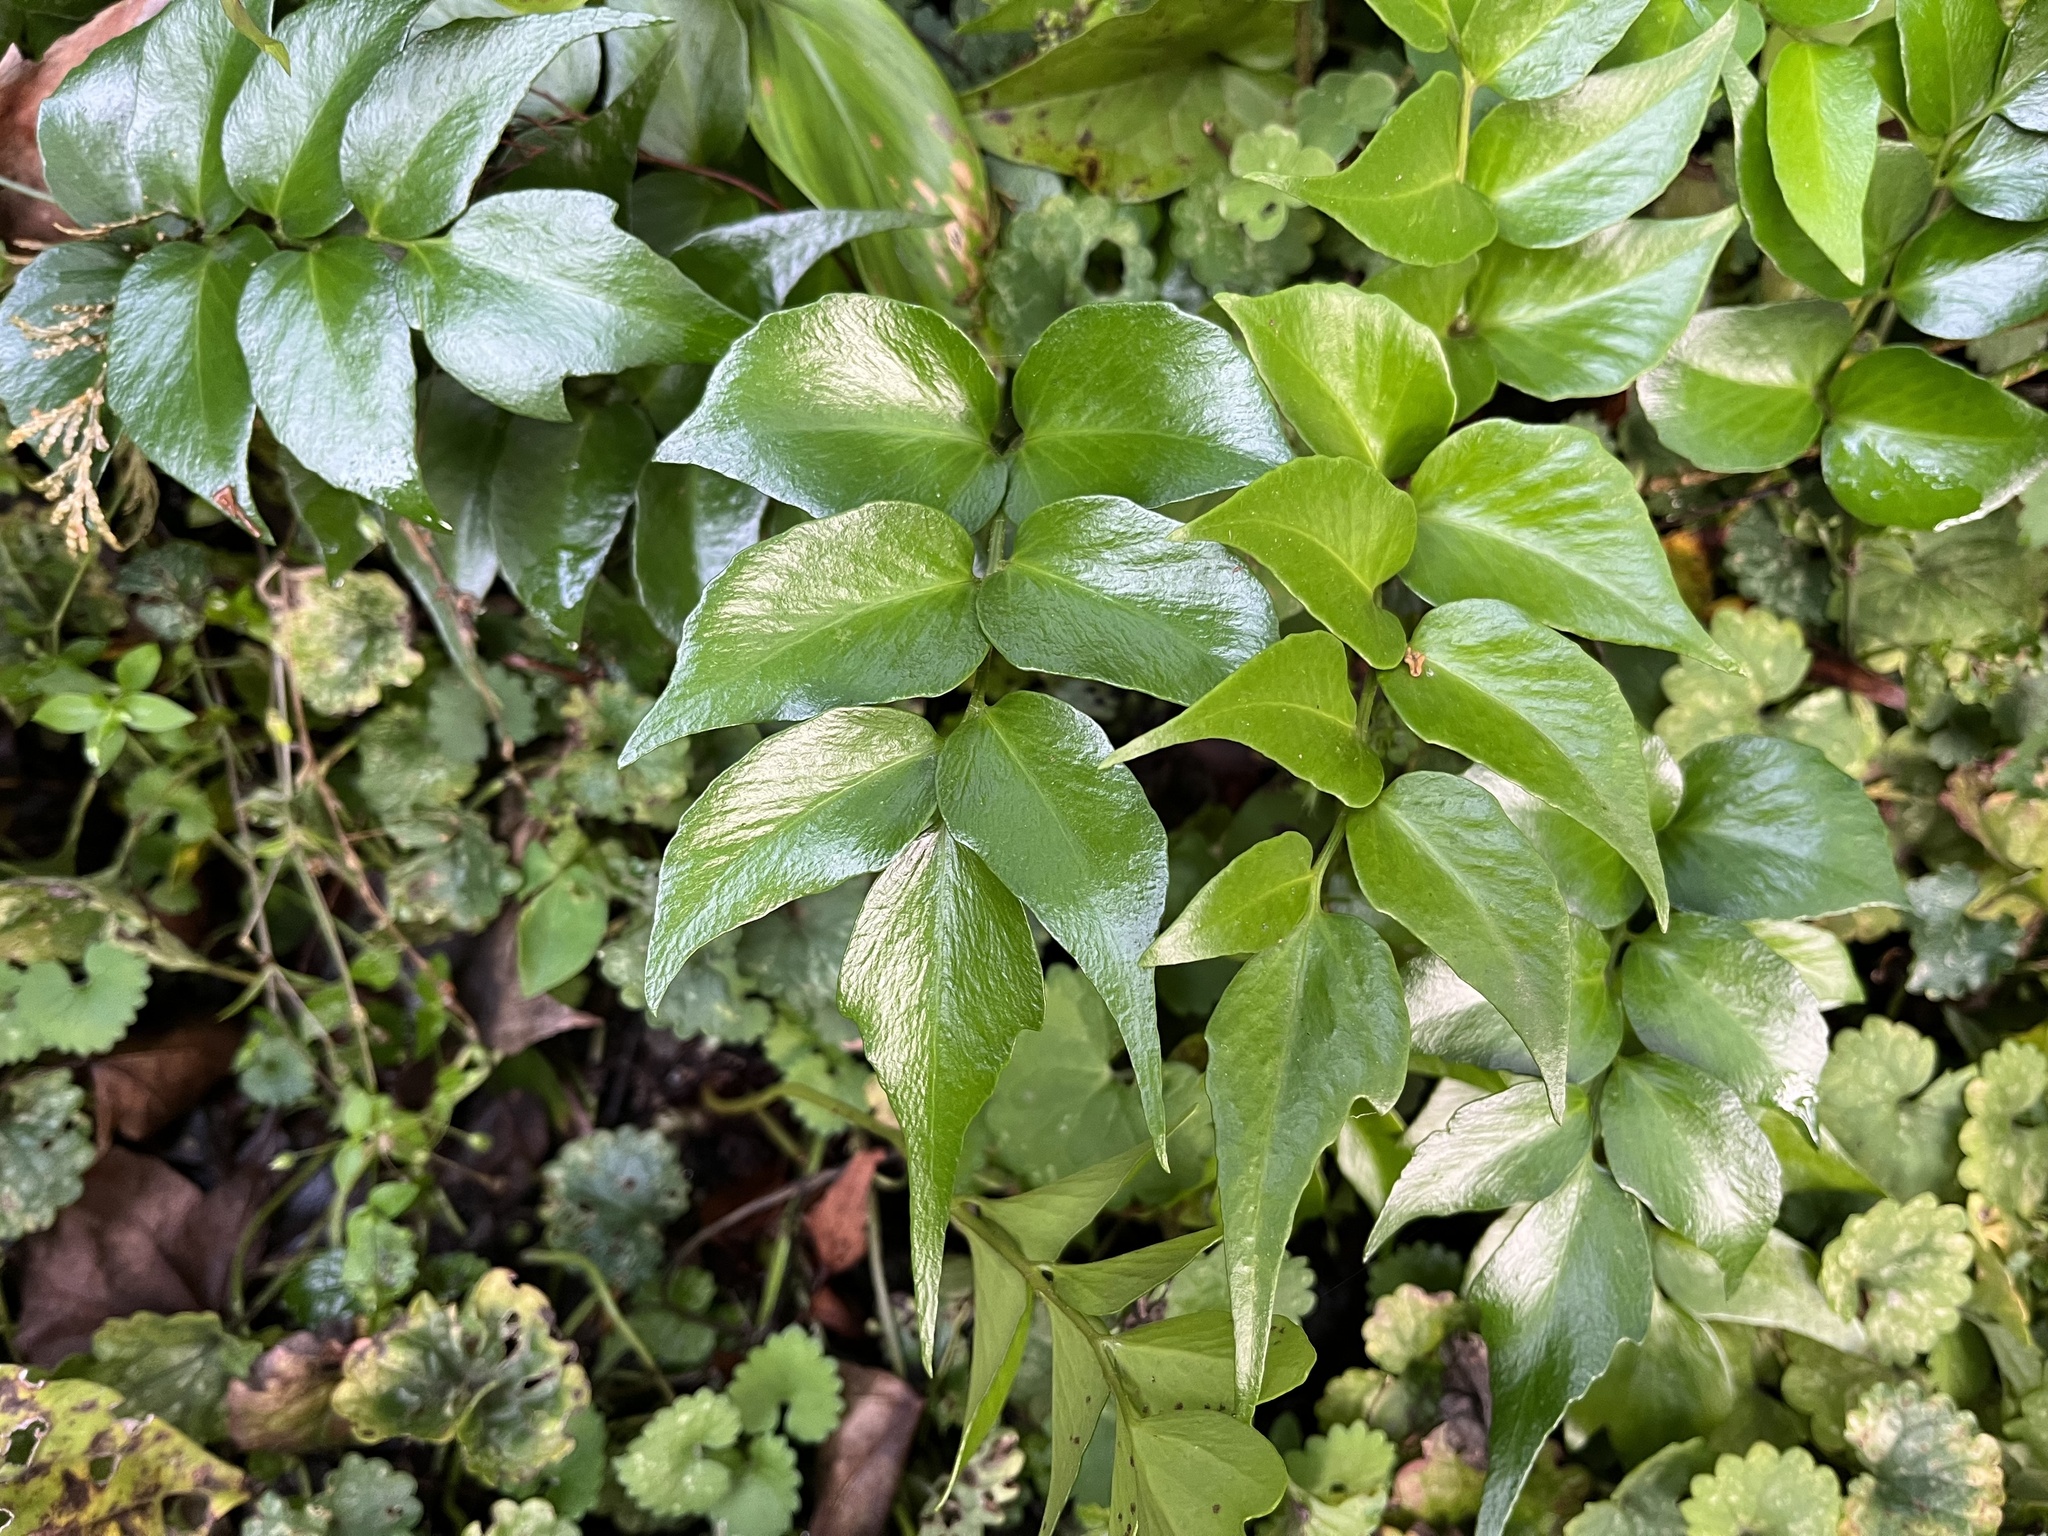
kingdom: Plantae
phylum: Tracheophyta
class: Polypodiopsida
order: Polypodiales
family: Dryopteridaceae
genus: Cyrtomium
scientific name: Cyrtomium falcatum
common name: House holly-fern
